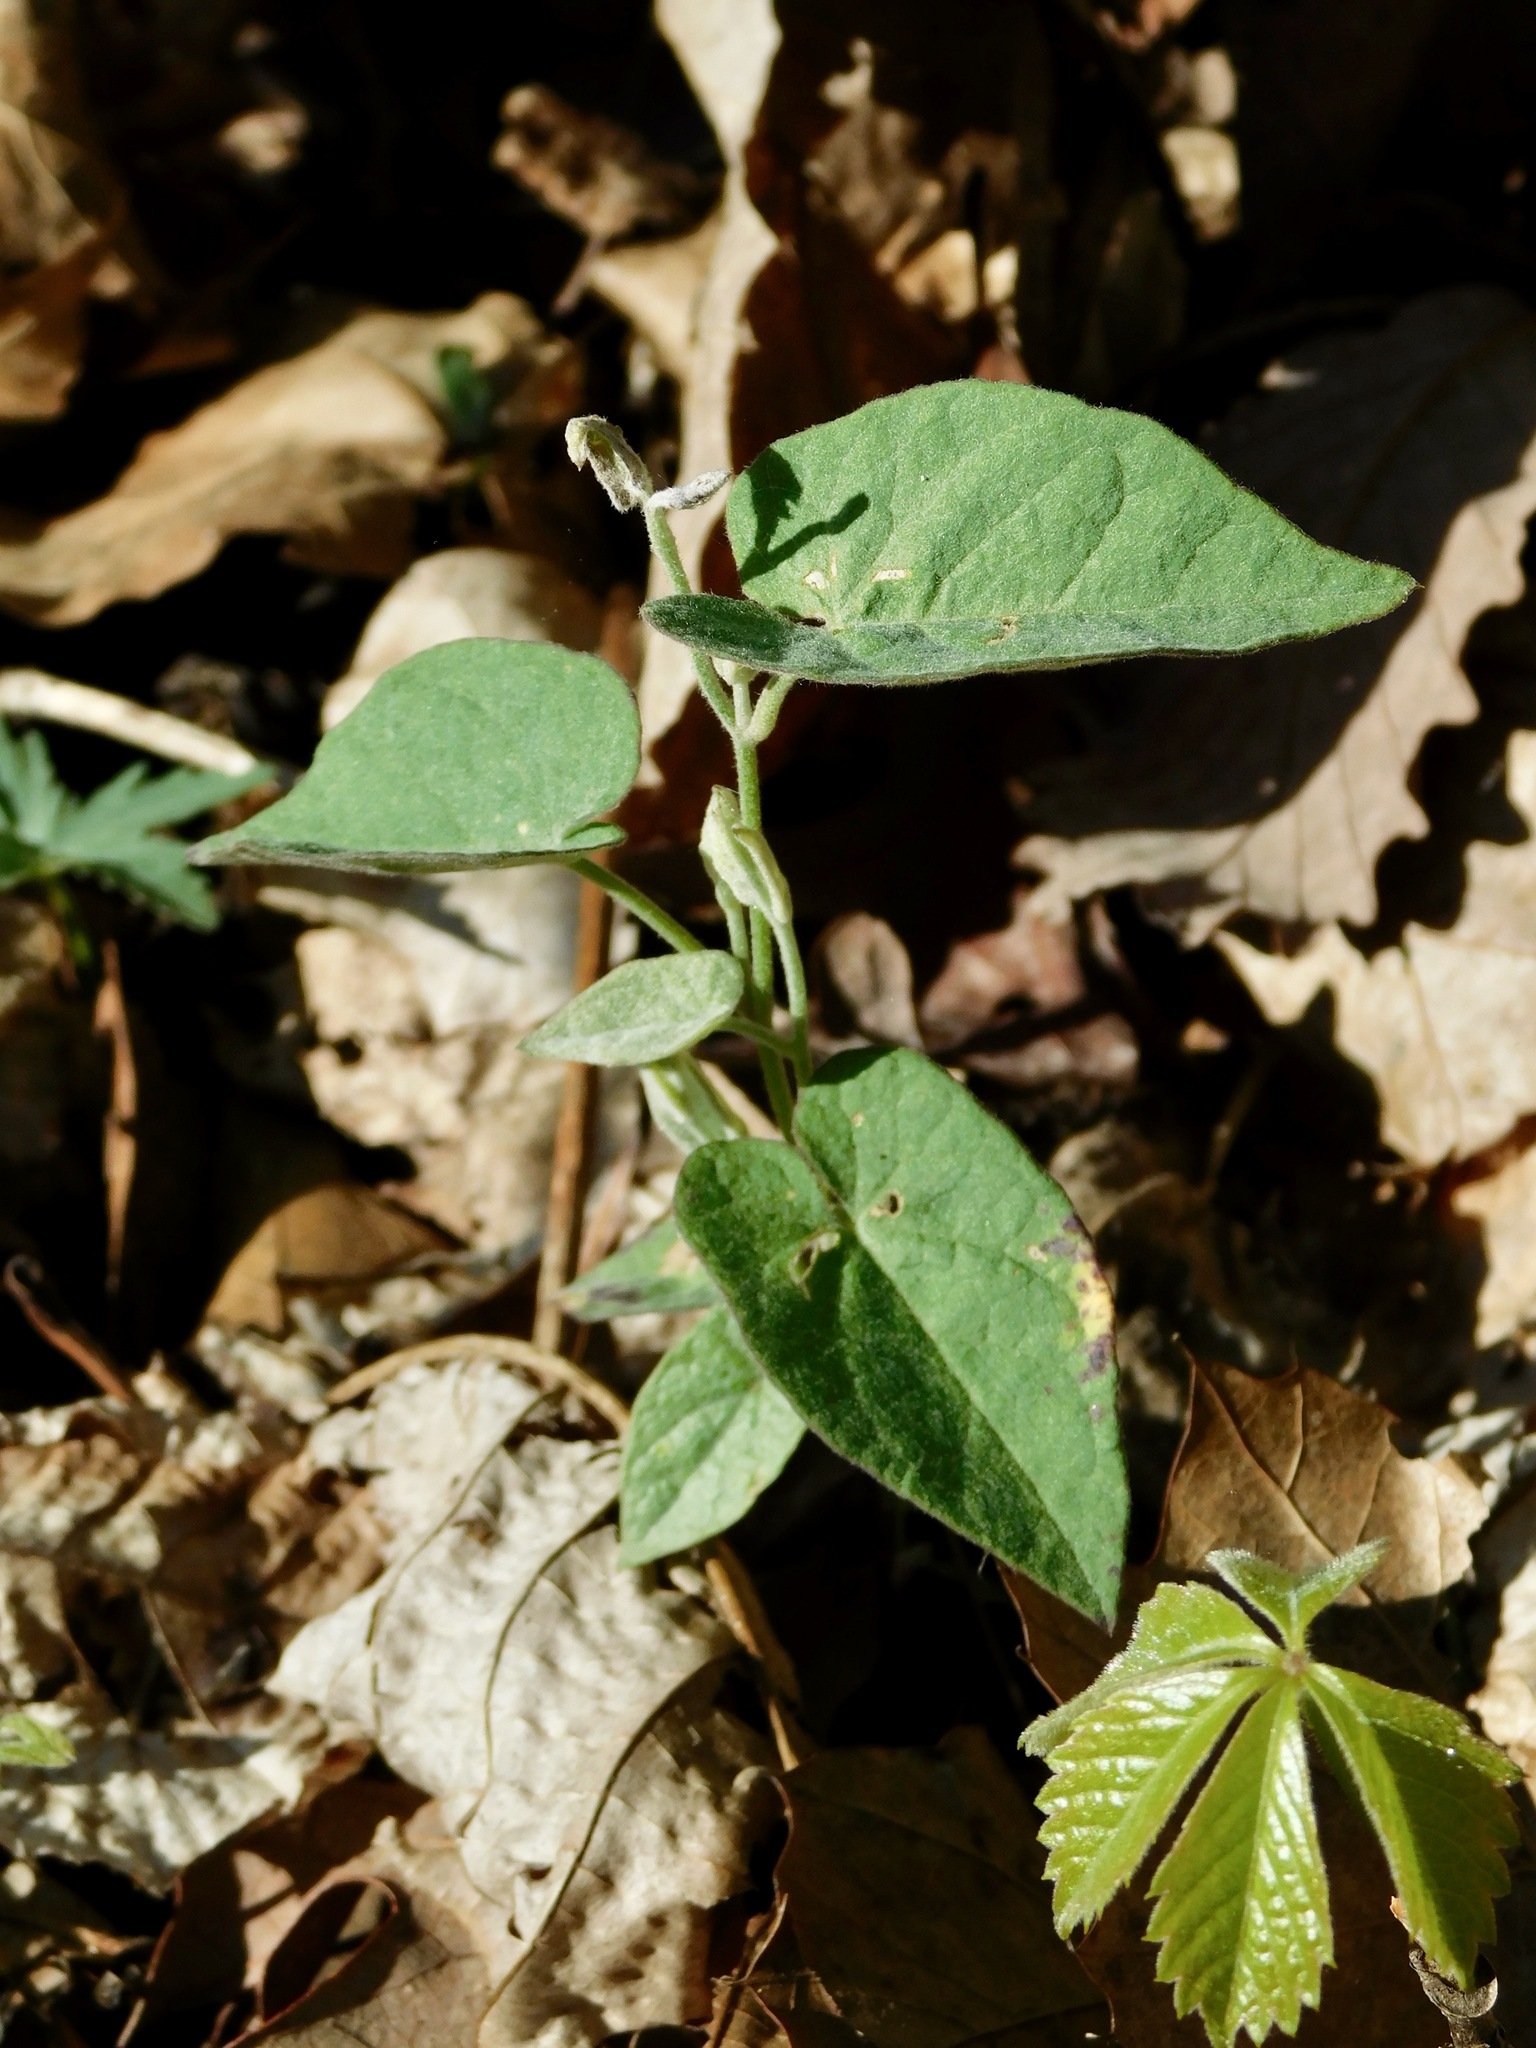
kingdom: Plantae
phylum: Tracheophyta
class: Magnoliopsida
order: Solanales
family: Convolvulaceae
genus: Calystegia
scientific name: Calystegia catesbeiana
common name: Catesby's false bindweed
